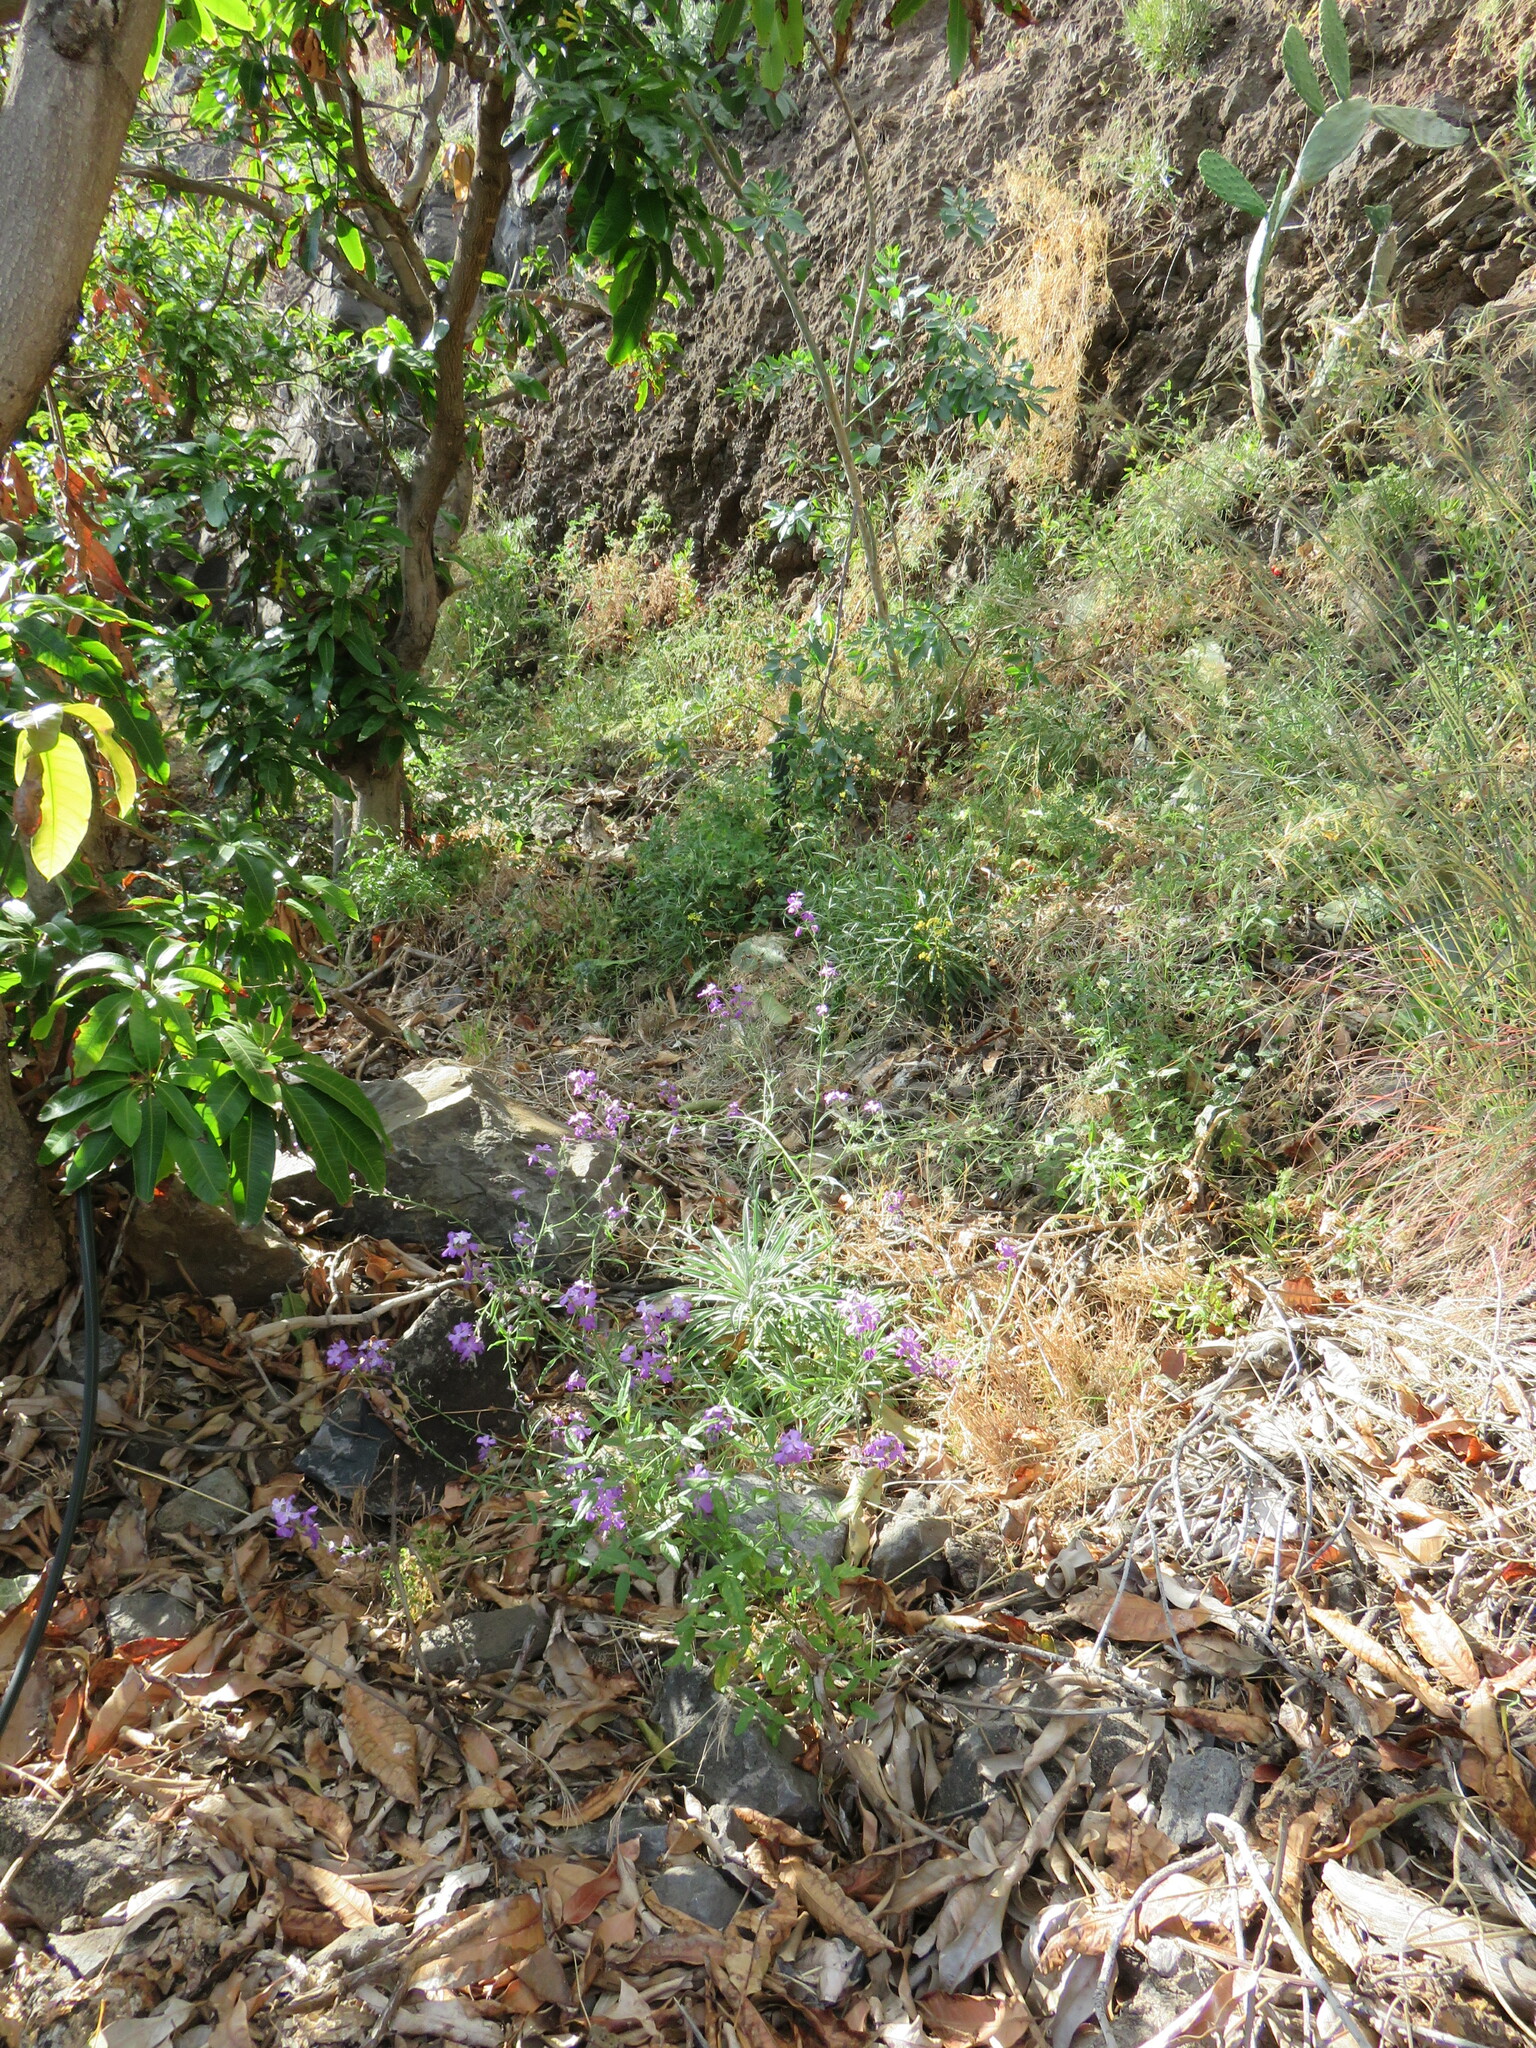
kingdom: Plantae
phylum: Tracheophyta
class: Magnoliopsida
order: Brassicales
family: Brassicaceae
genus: Matthiola
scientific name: Matthiola maderensis
